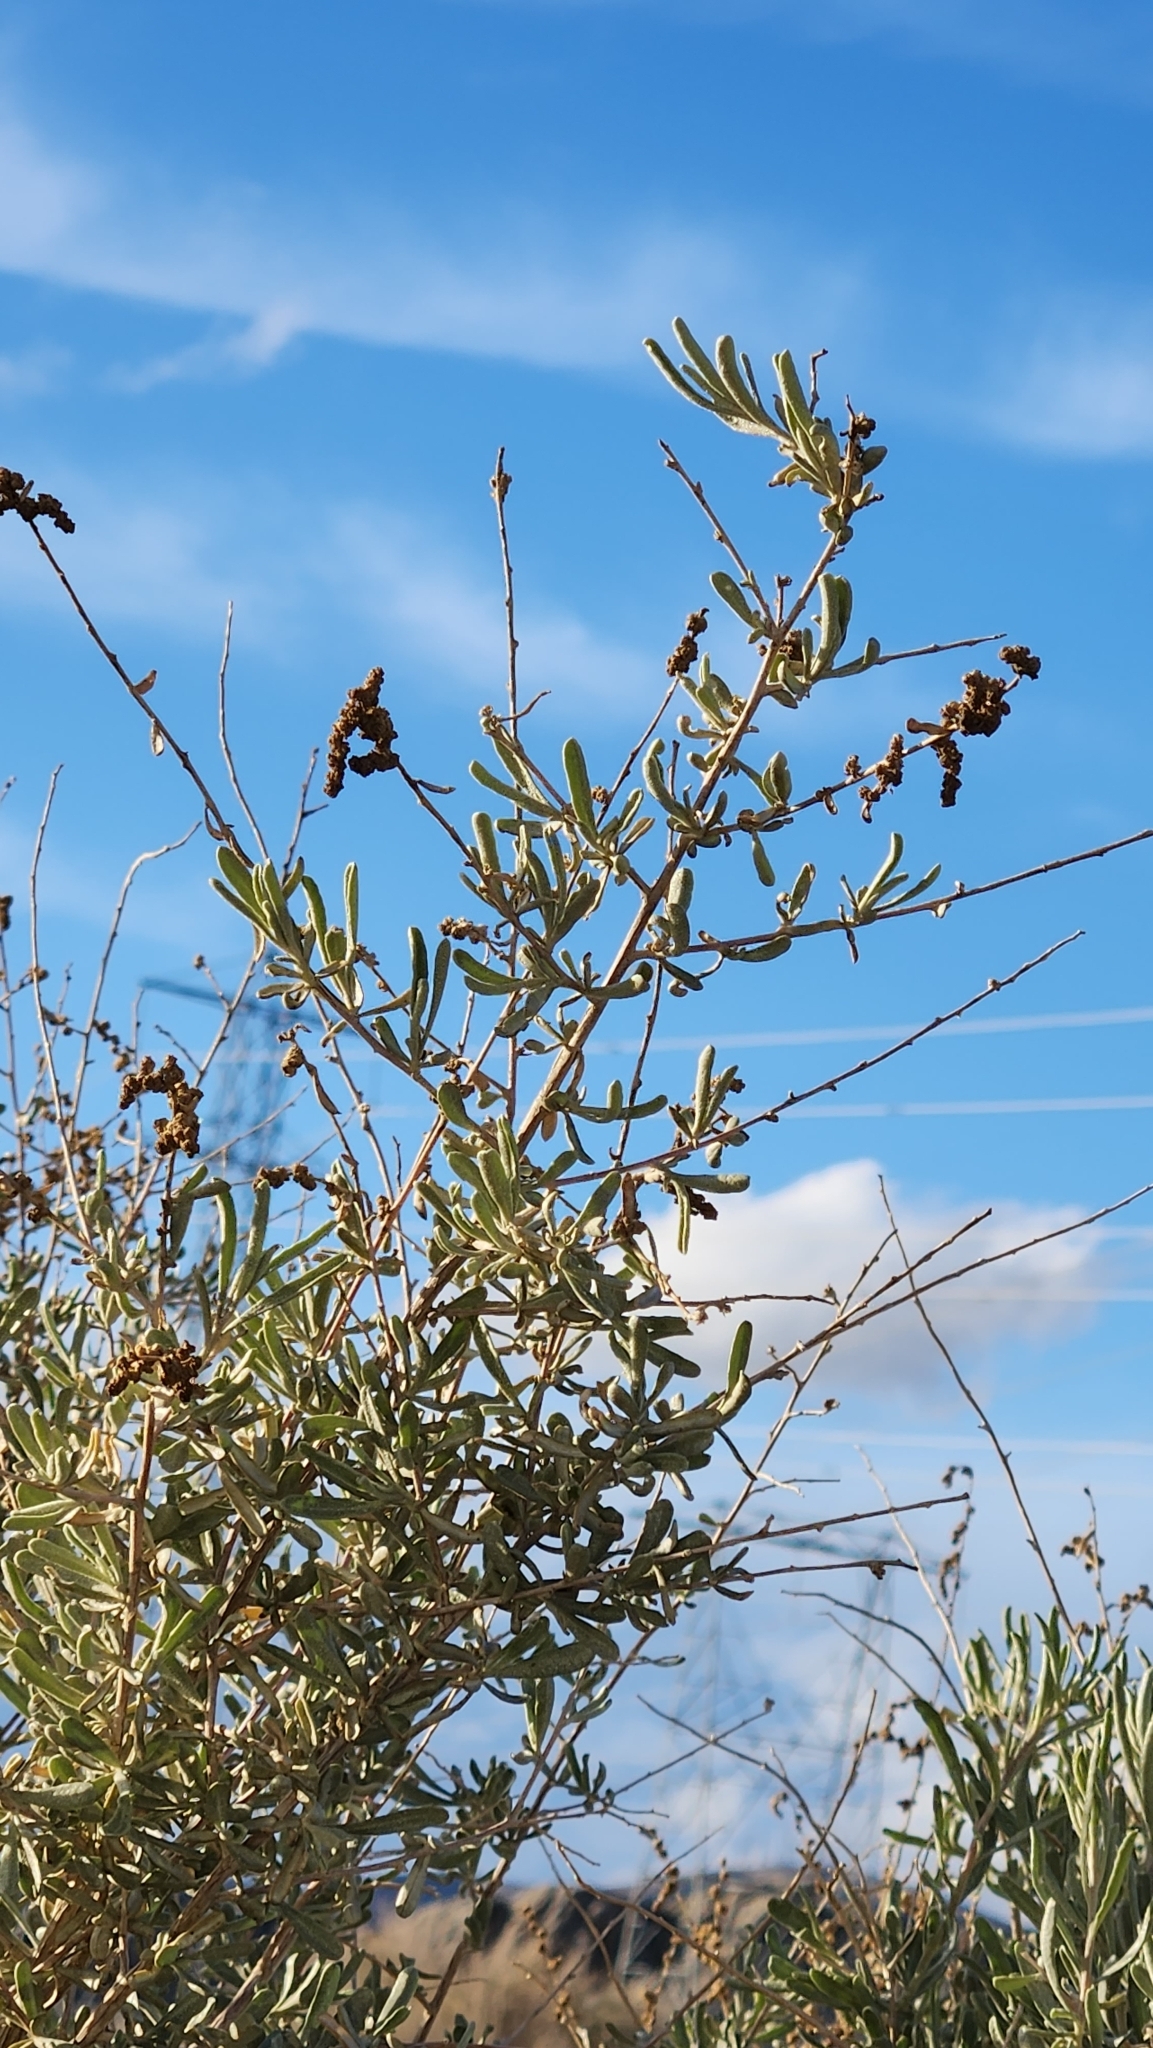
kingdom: Plantae
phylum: Tracheophyta
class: Magnoliopsida
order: Caryophyllales
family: Amaranthaceae
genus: Atriplex
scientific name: Atriplex canescens
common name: Four-wing saltbush
